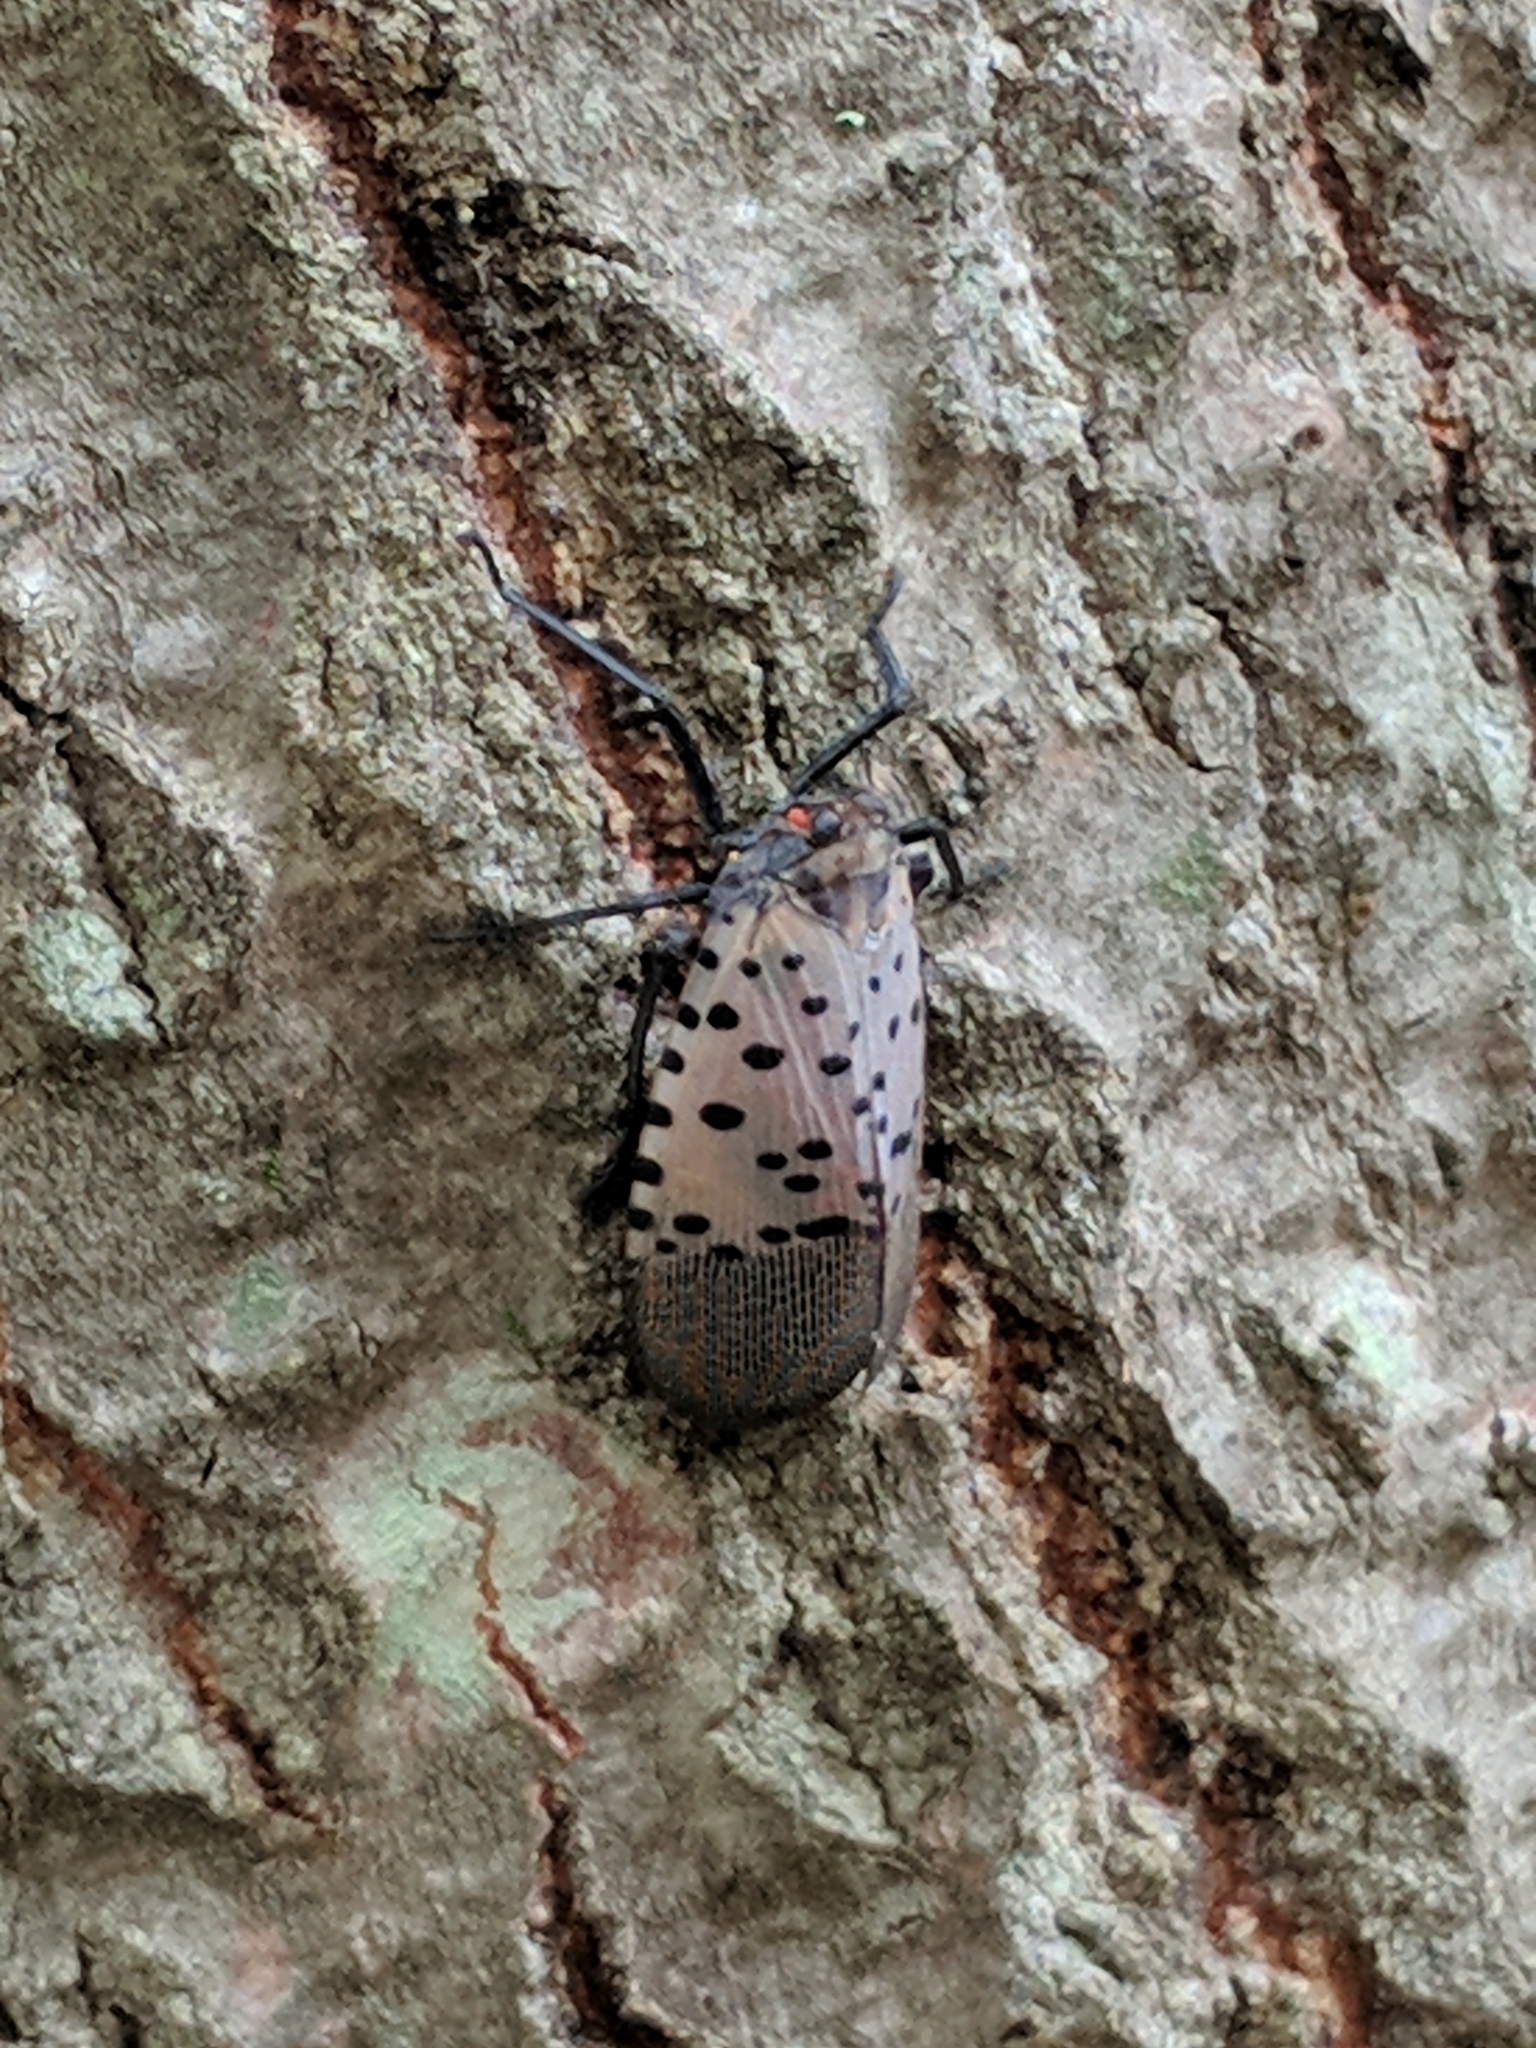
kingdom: Animalia
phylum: Arthropoda
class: Insecta
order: Hemiptera
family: Fulgoridae
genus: Lycorma
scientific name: Lycorma delicatula
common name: Spotted lanternfly
